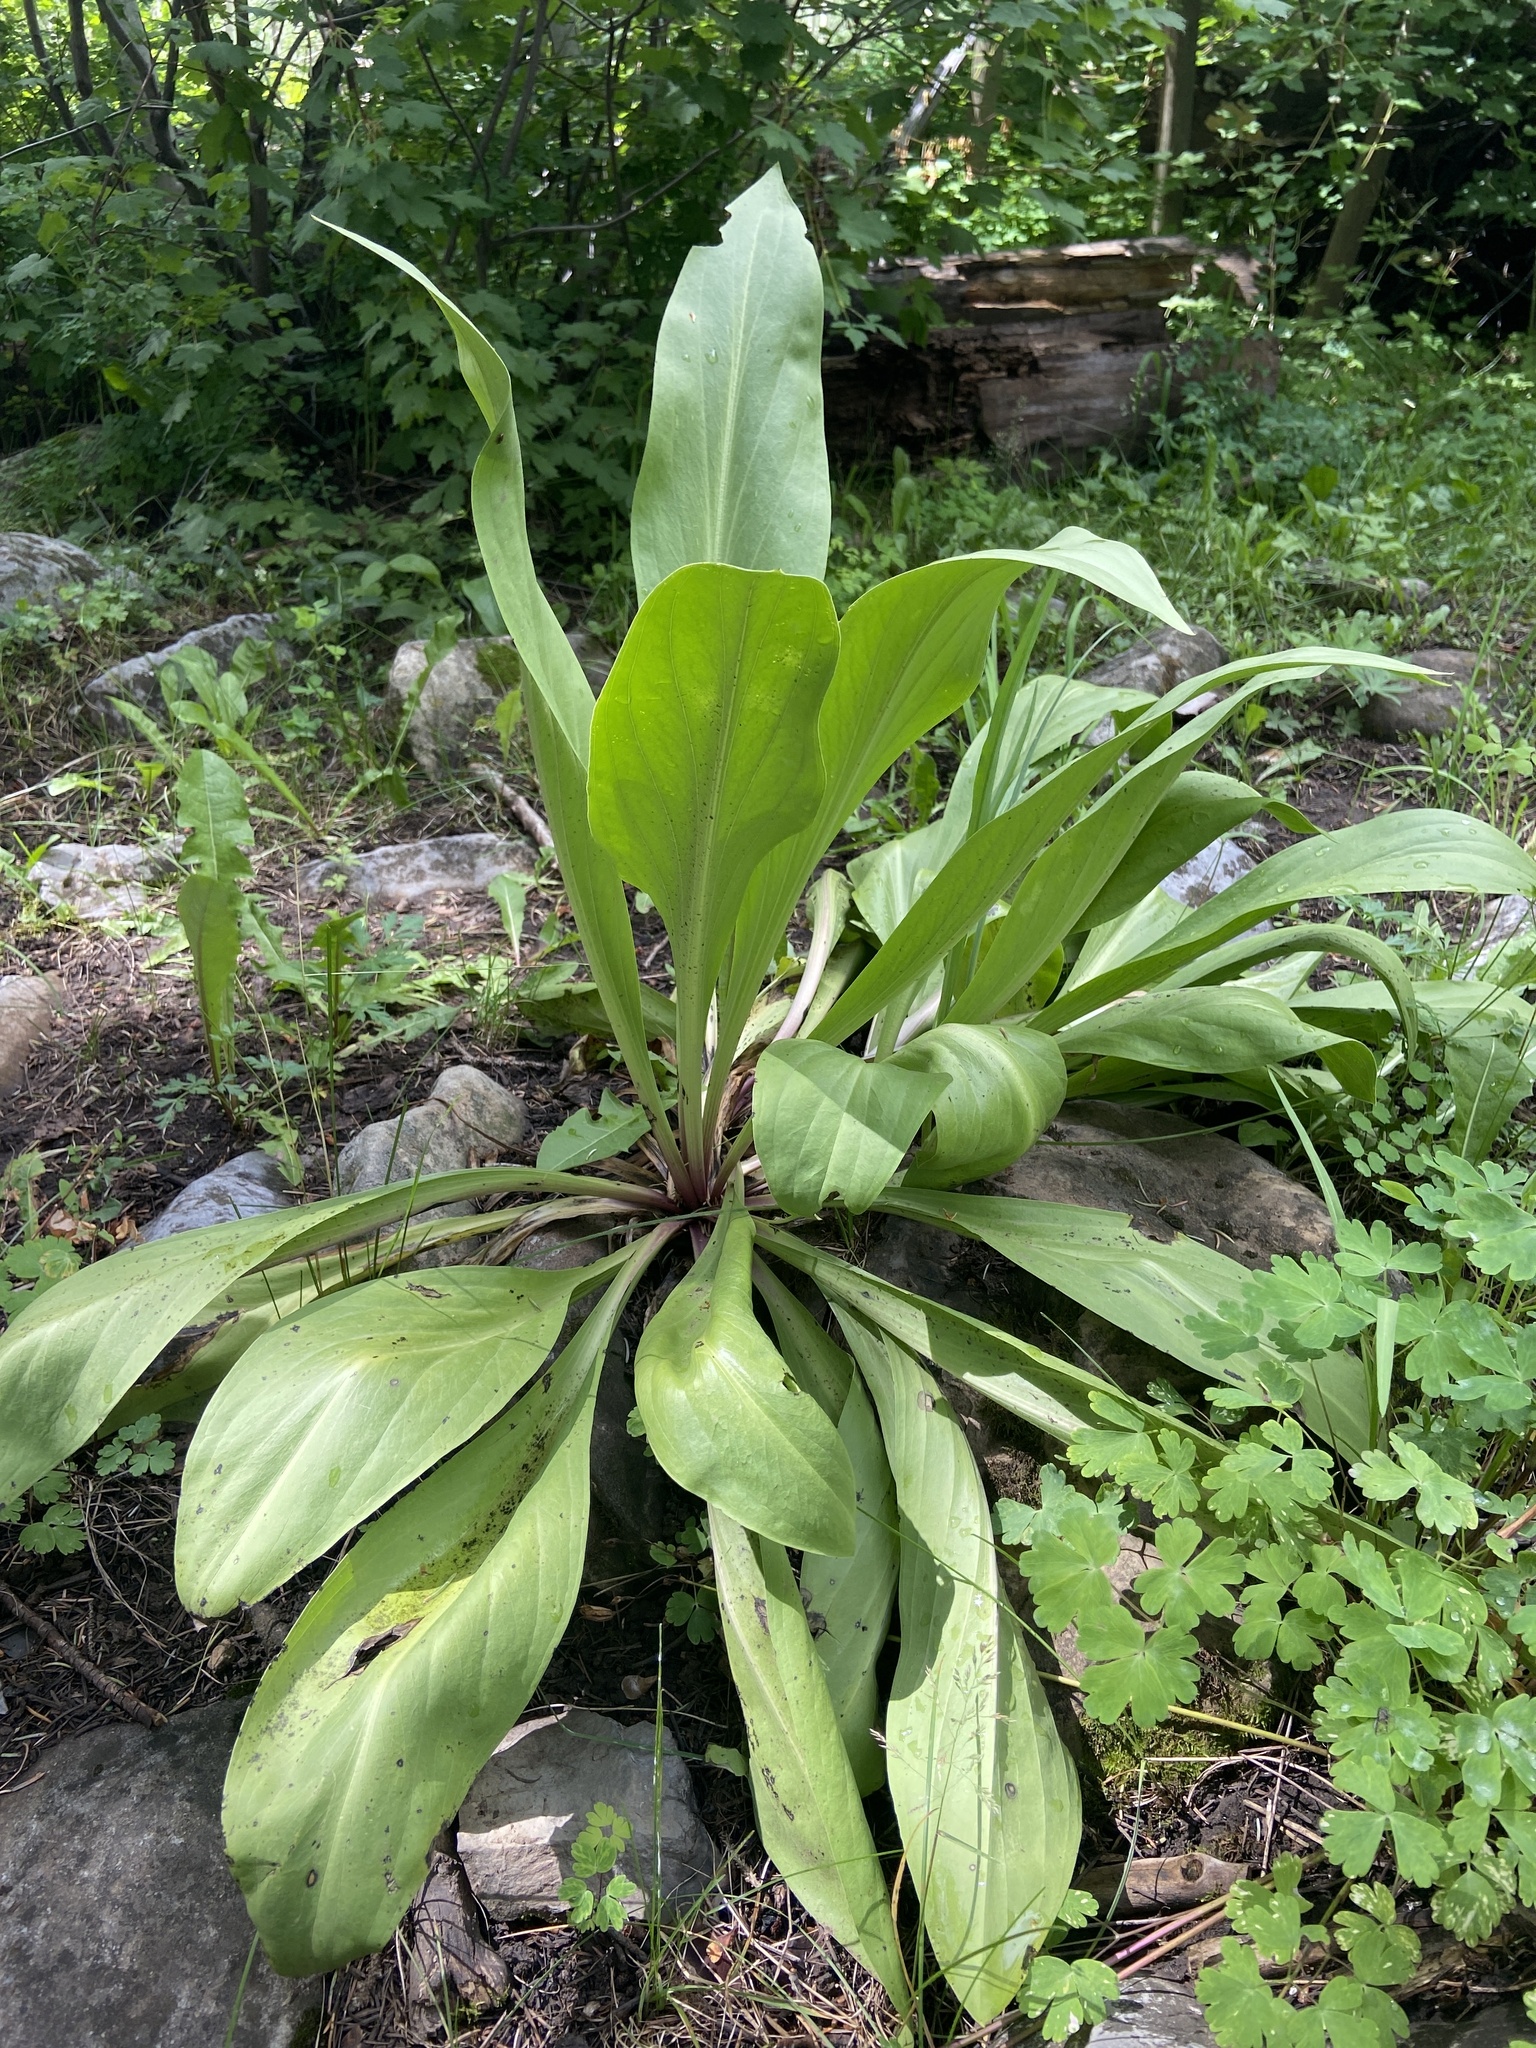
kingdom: Plantae
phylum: Tracheophyta
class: Magnoliopsida
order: Gentianales
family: Gentianaceae
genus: Frasera
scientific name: Frasera speciosa
